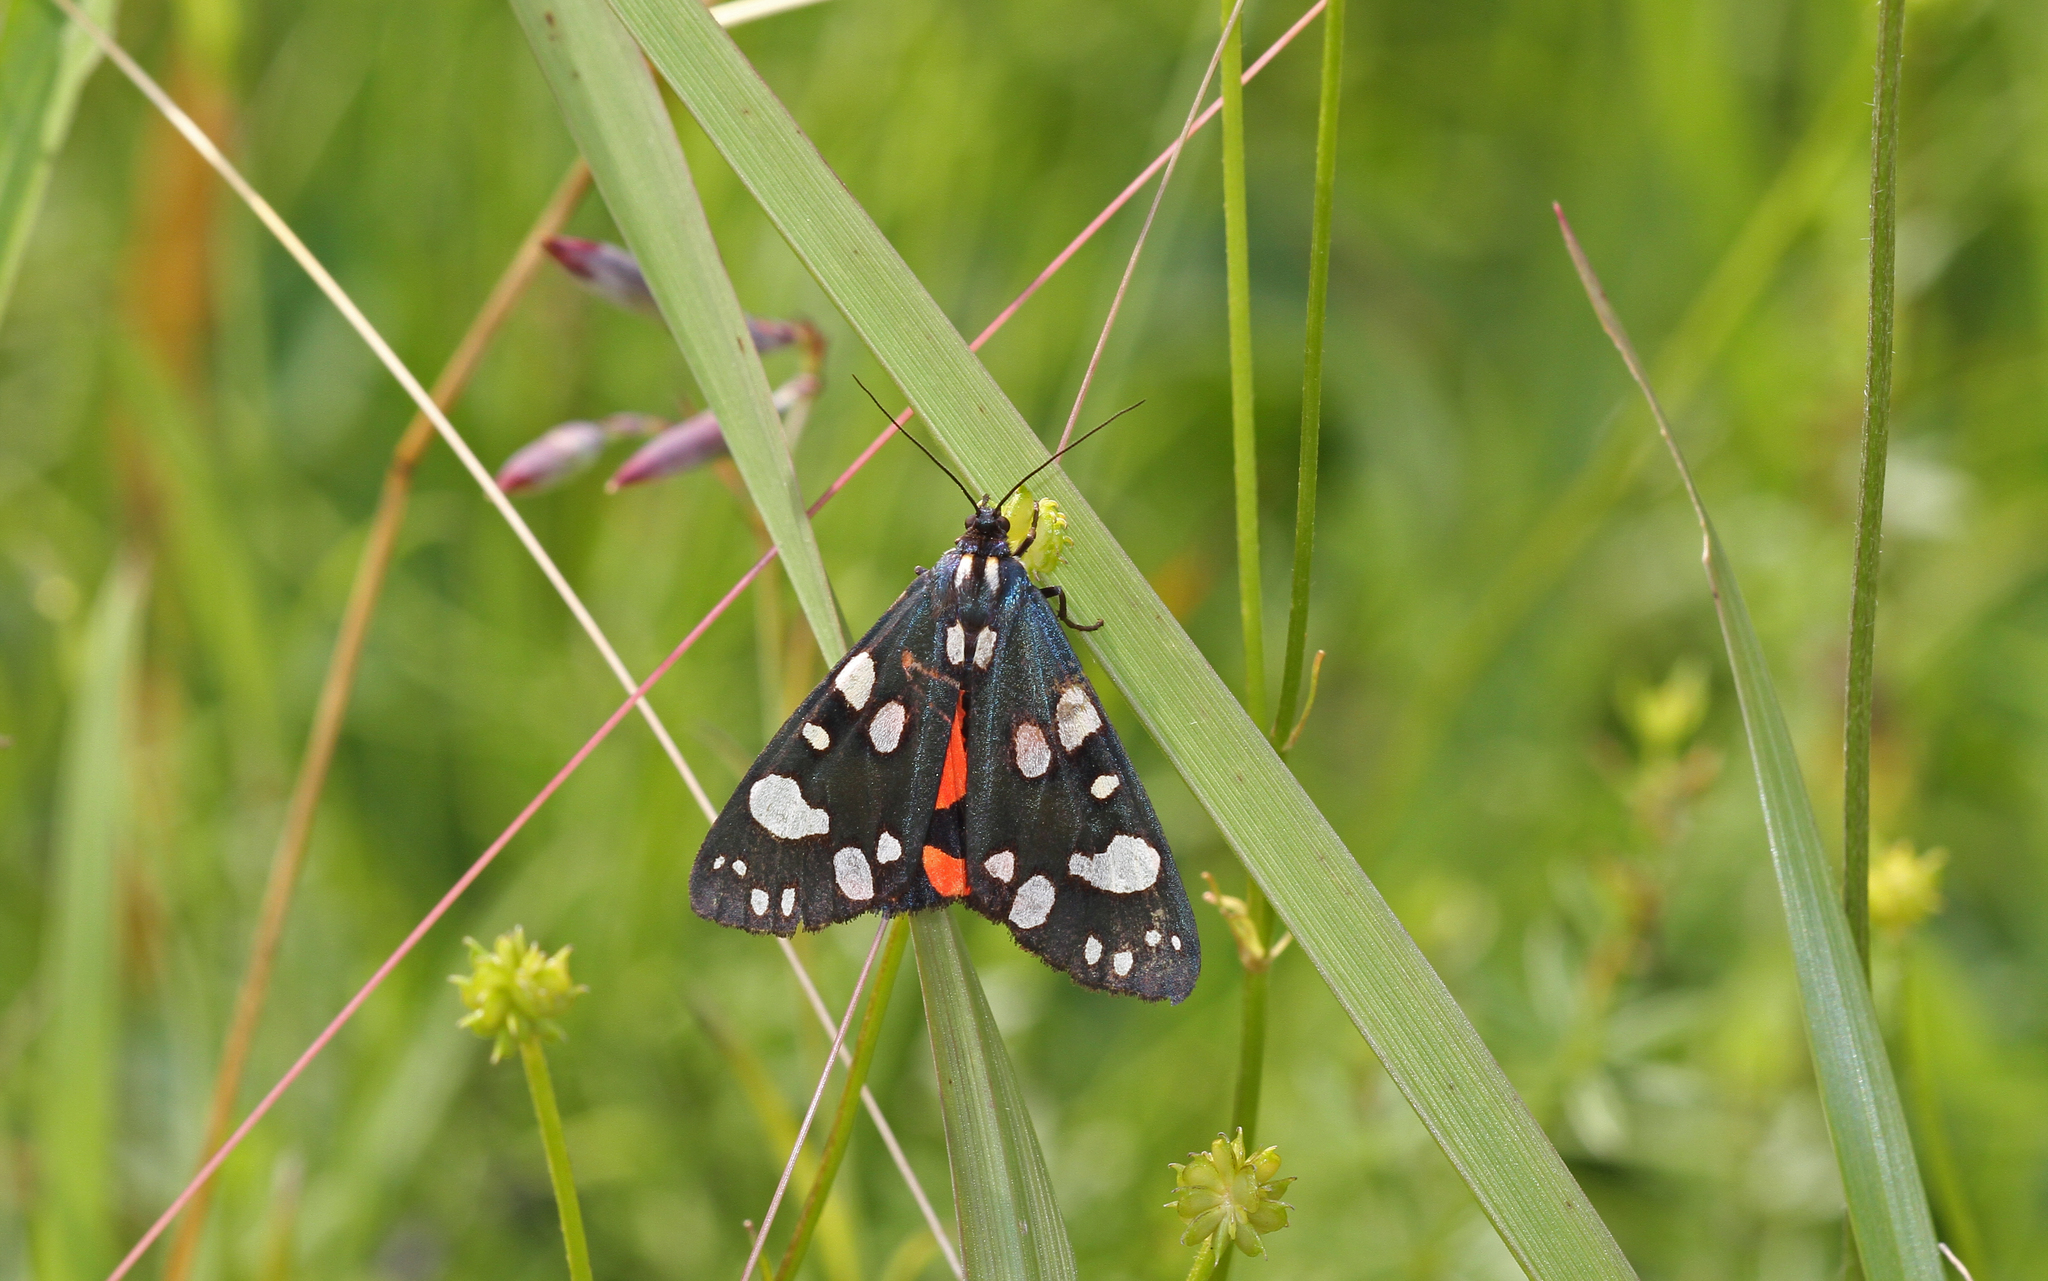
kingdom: Animalia
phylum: Arthropoda
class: Insecta
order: Lepidoptera
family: Erebidae
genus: Callimorpha
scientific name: Callimorpha dominula
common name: Scarlet tiger
